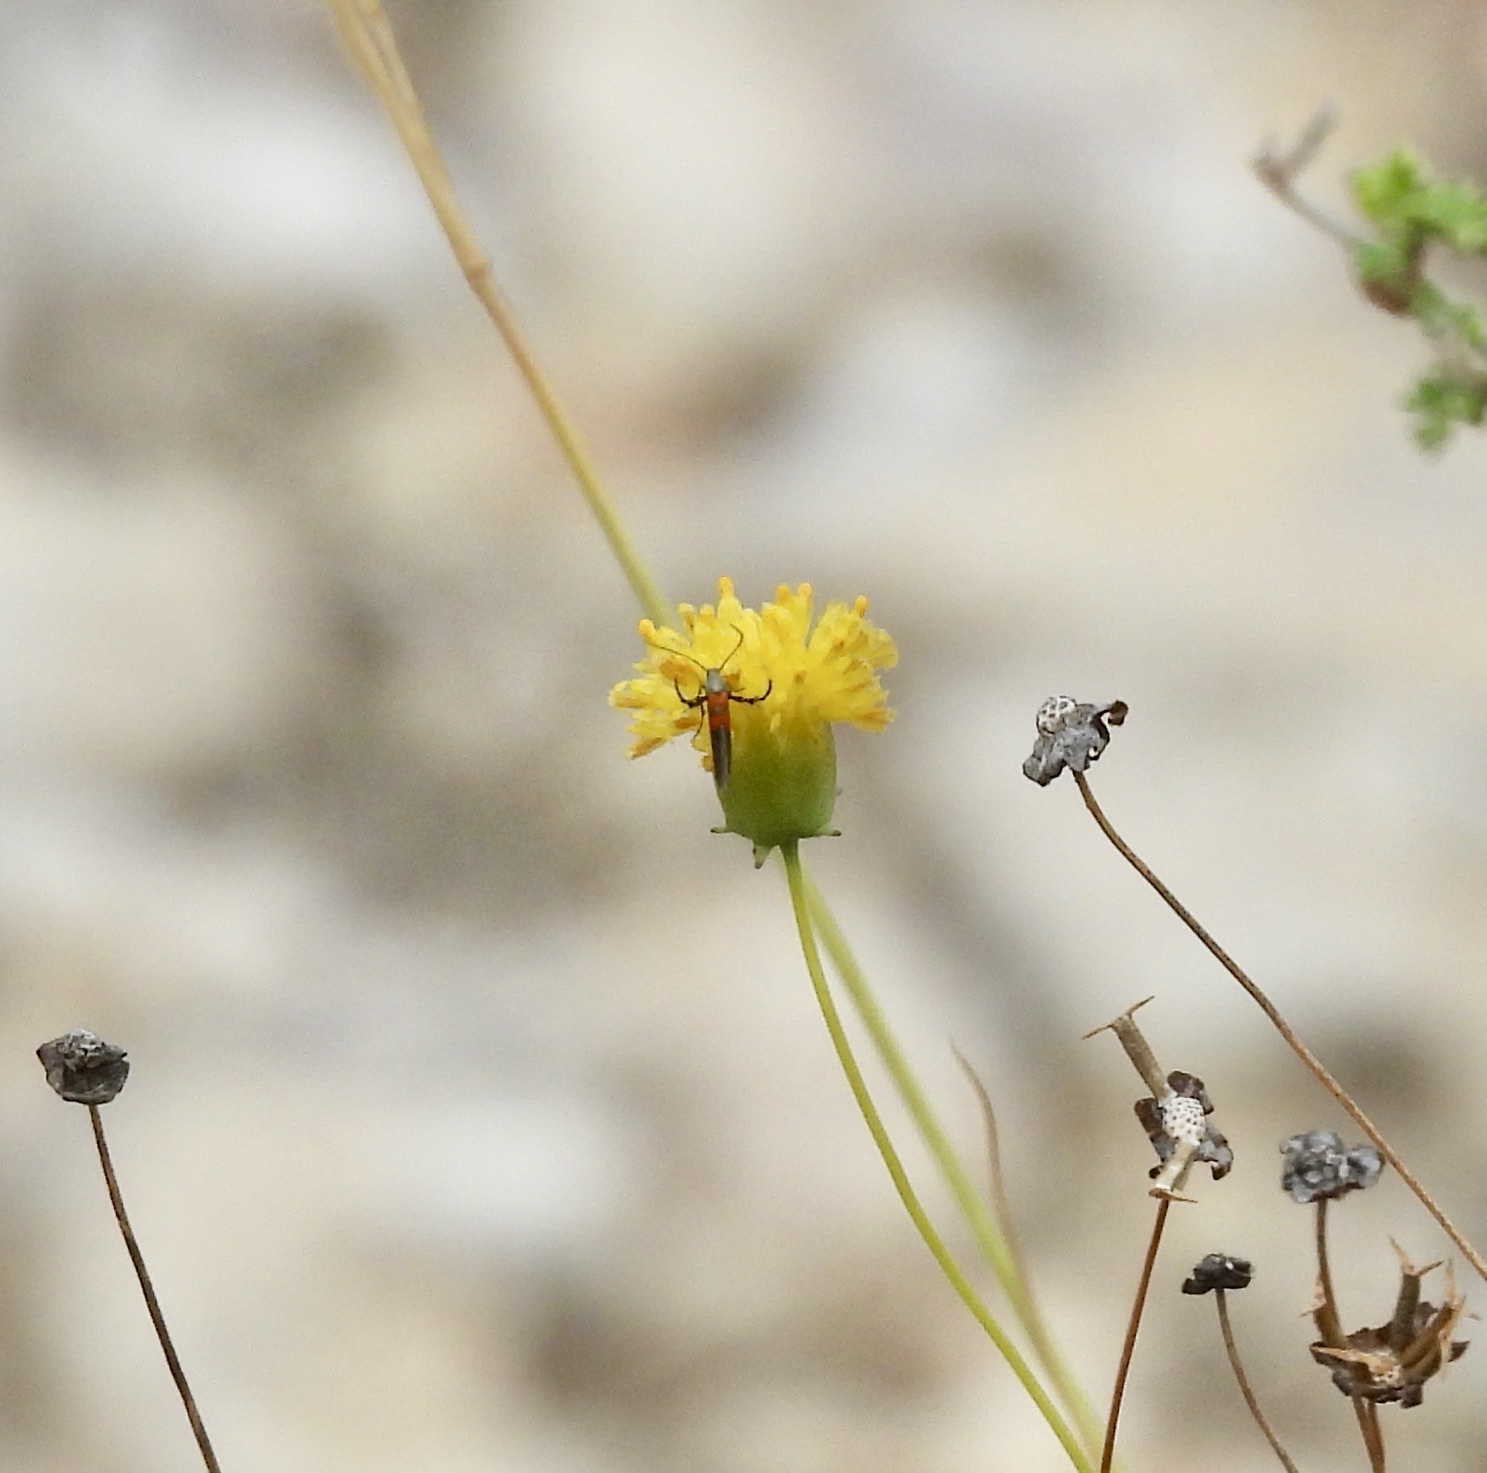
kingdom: Animalia
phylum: Arthropoda
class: Insecta
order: Lepidoptera
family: Heliodinidae
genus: Heliodines
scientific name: Heliodines Aetole unipunctella
